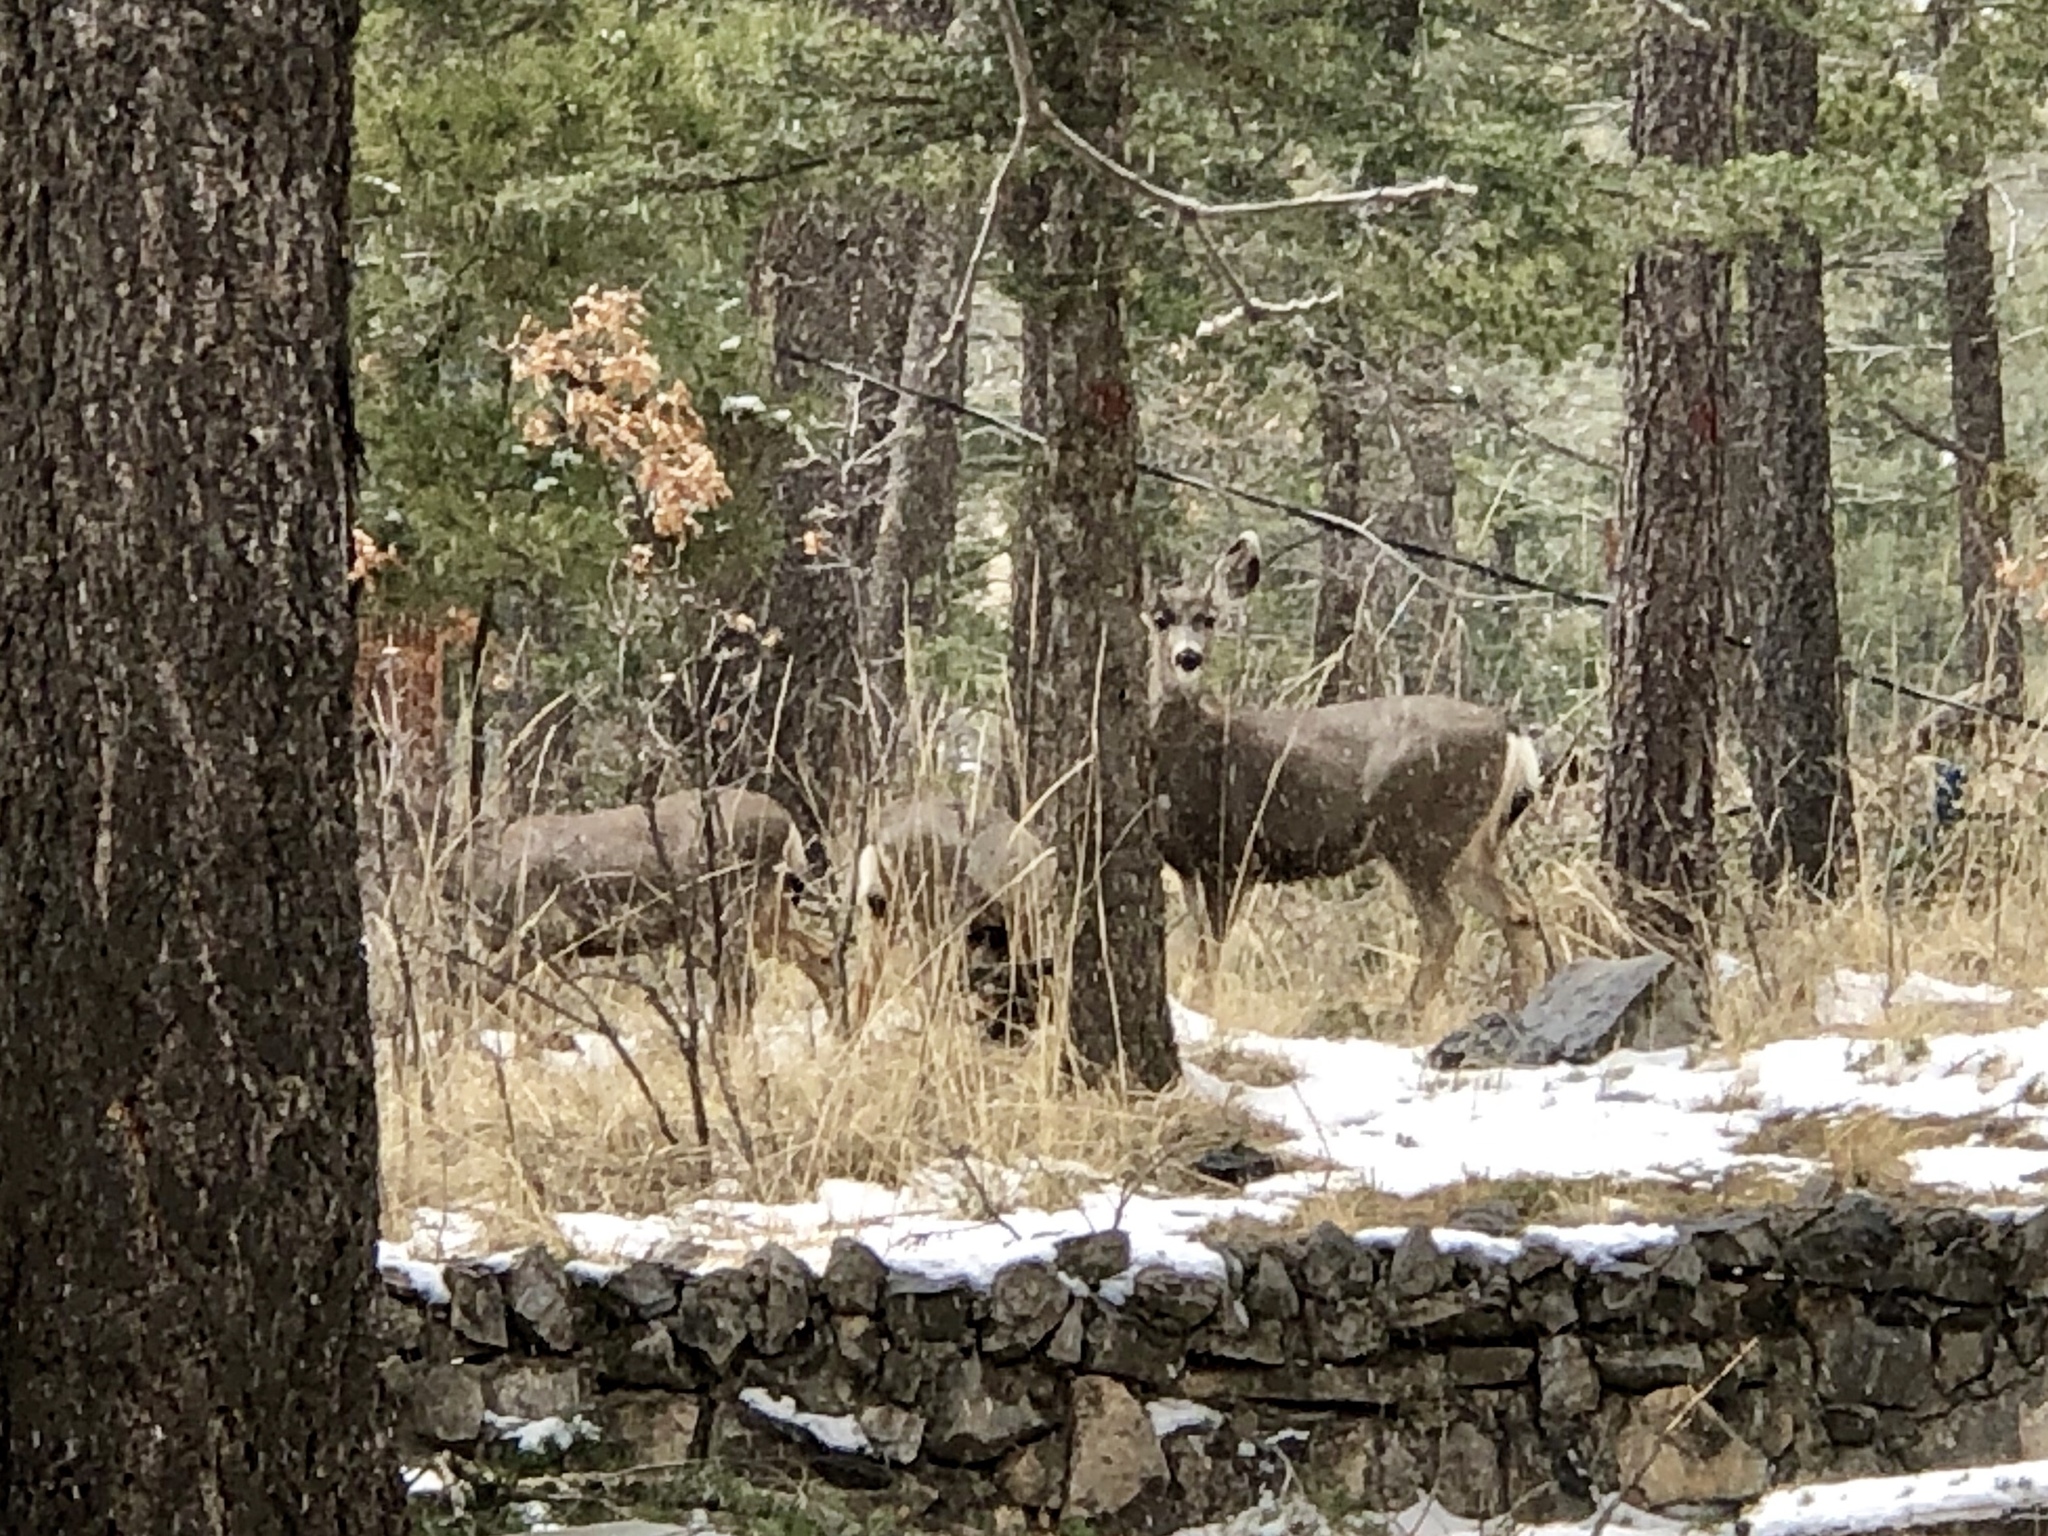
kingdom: Animalia
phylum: Chordata
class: Mammalia
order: Artiodactyla
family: Cervidae
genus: Odocoileus
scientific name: Odocoileus hemionus
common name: Mule deer
